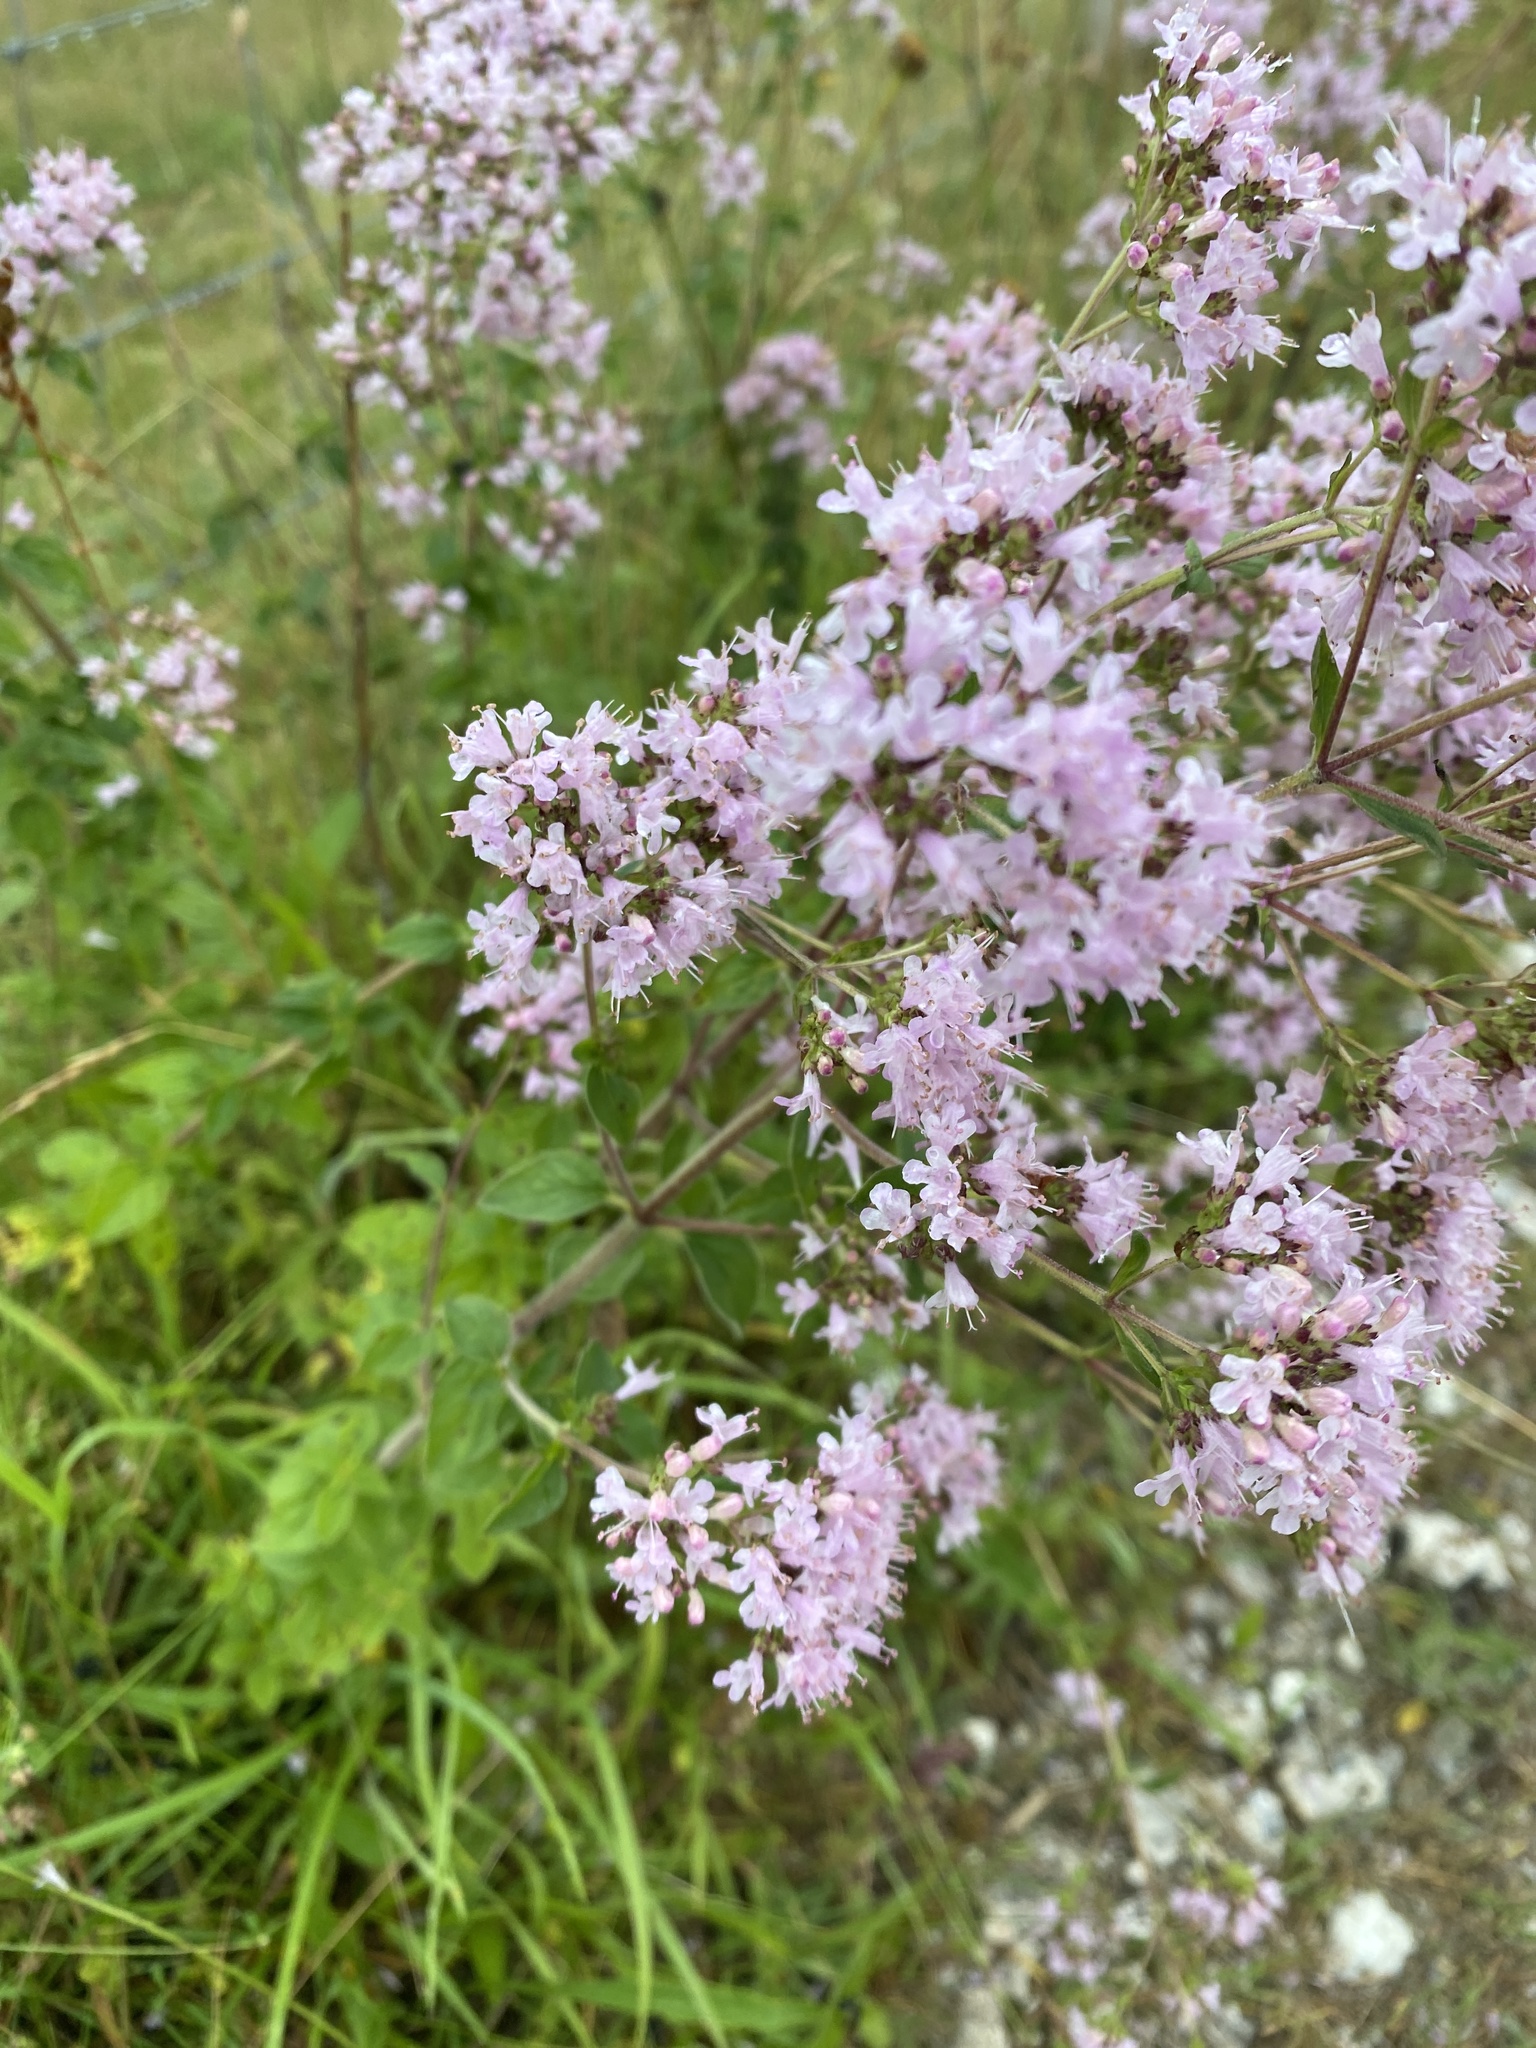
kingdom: Plantae
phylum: Tracheophyta
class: Magnoliopsida
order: Lamiales
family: Lamiaceae
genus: Origanum
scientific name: Origanum vulgare
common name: Wild marjoram
